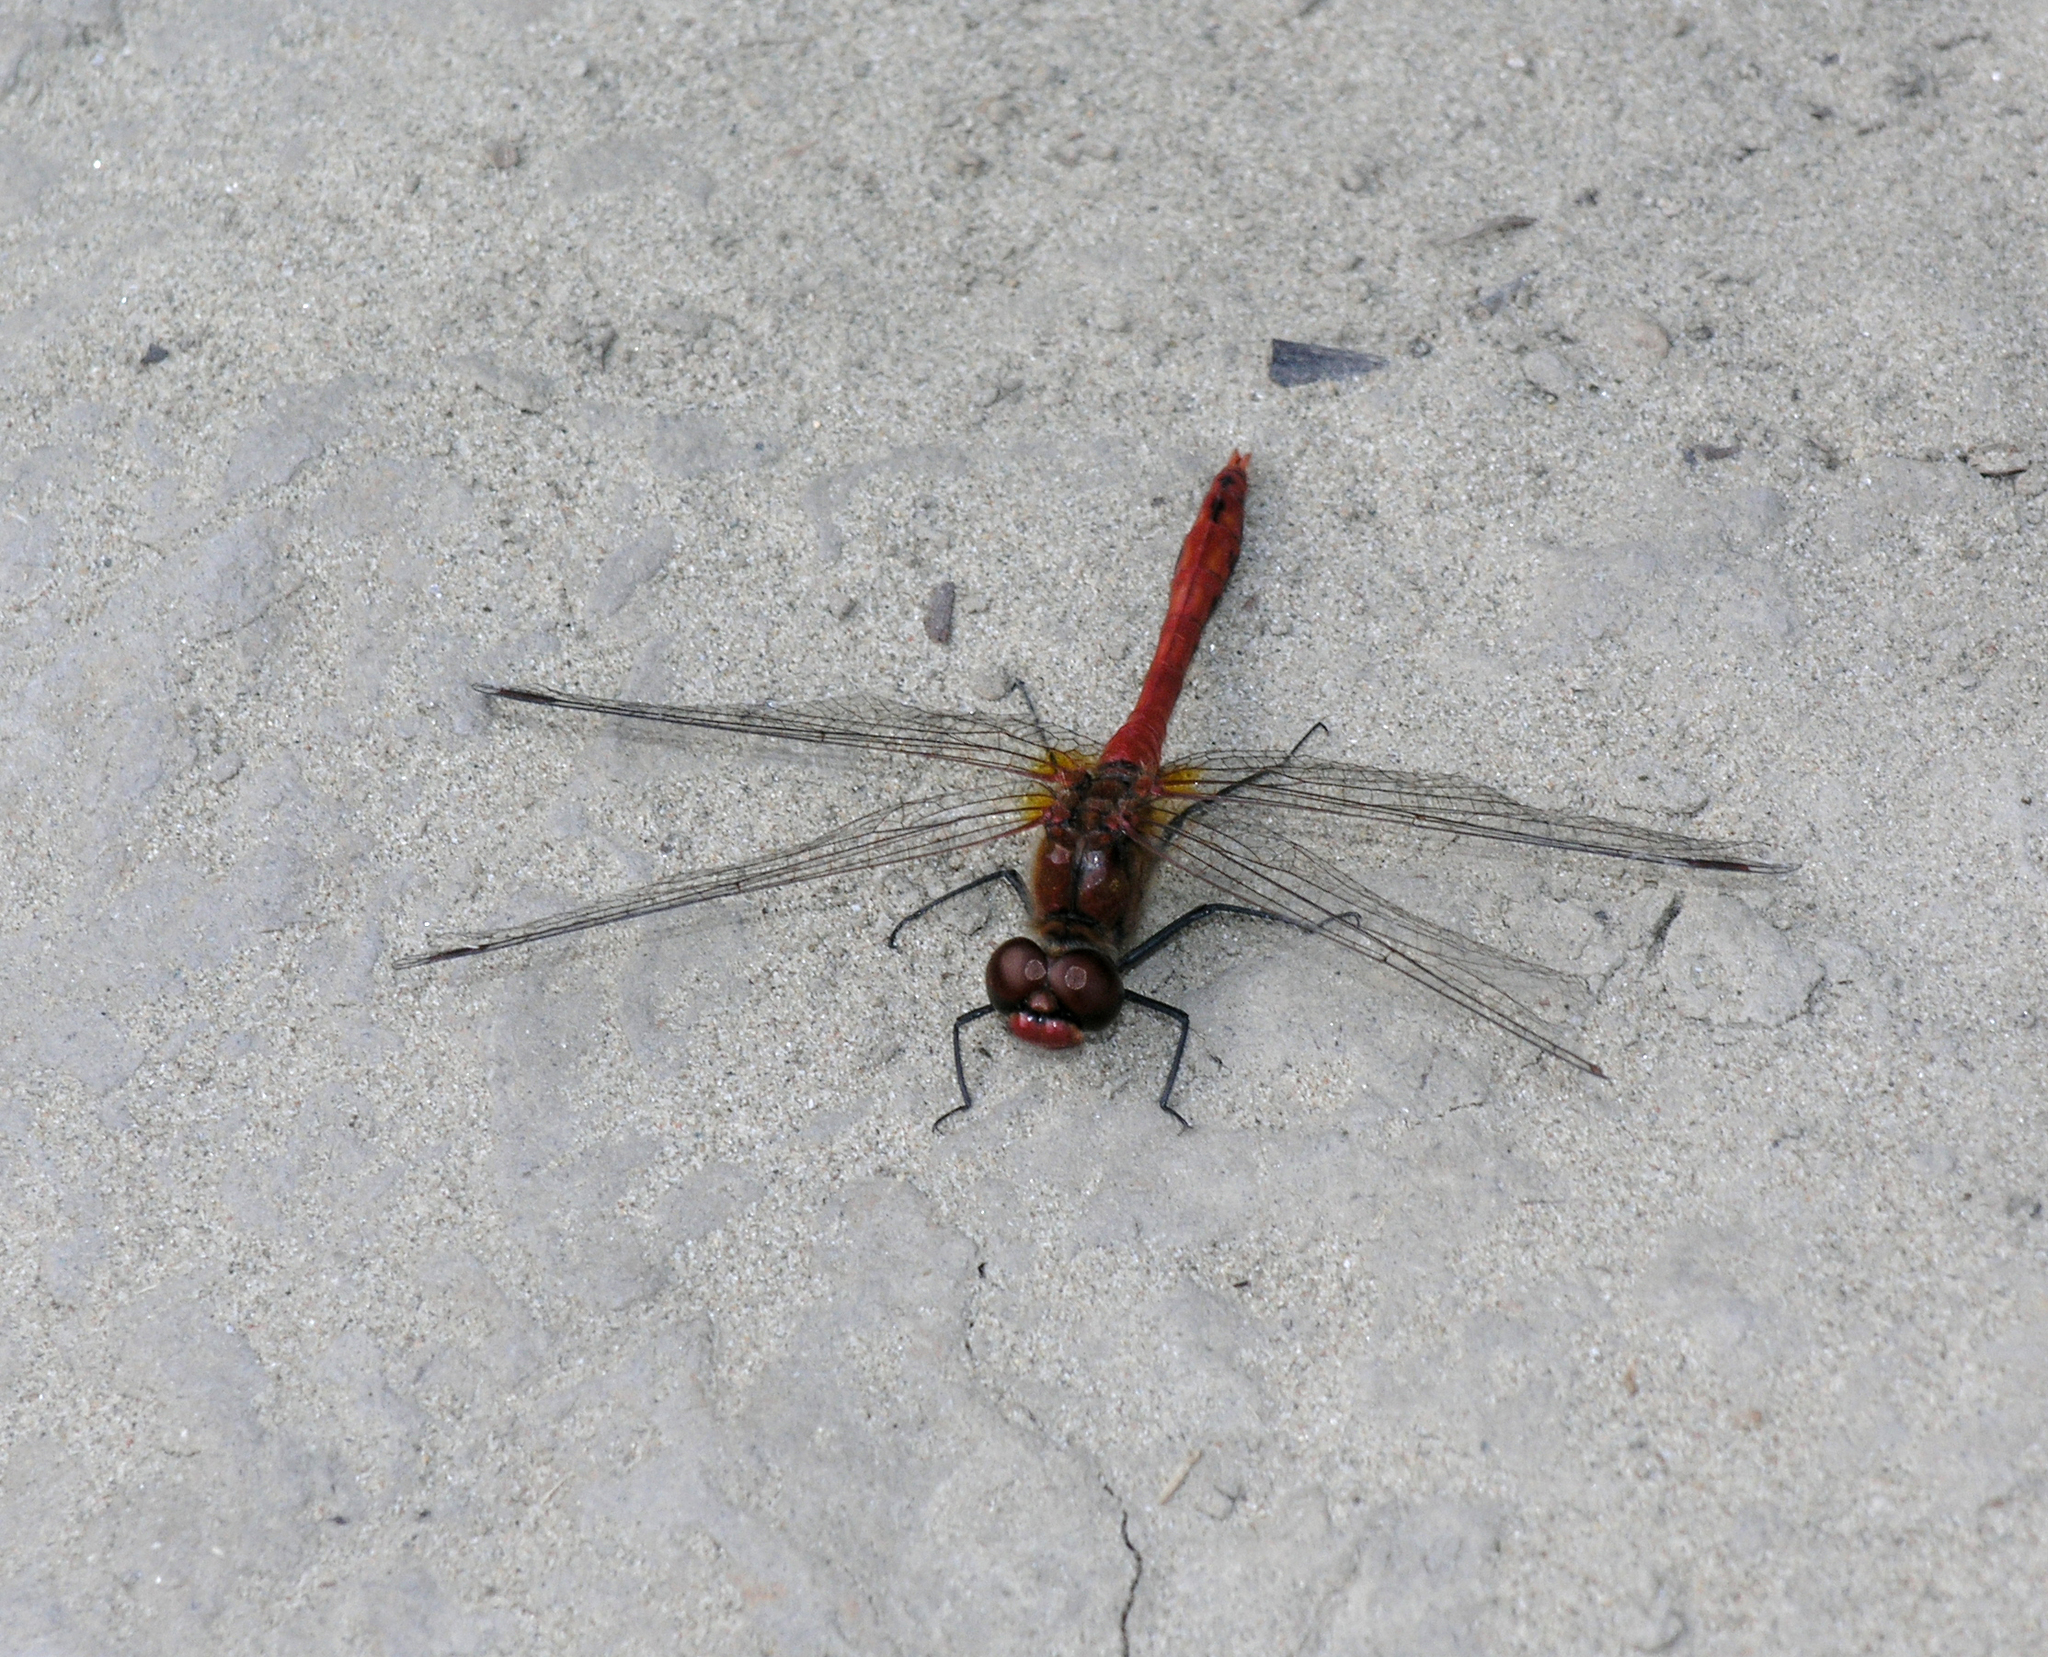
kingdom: Animalia
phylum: Arthropoda
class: Insecta
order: Odonata
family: Libellulidae
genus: Sympetrum
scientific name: Sympetrum sanguineum
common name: Ruddy darter
